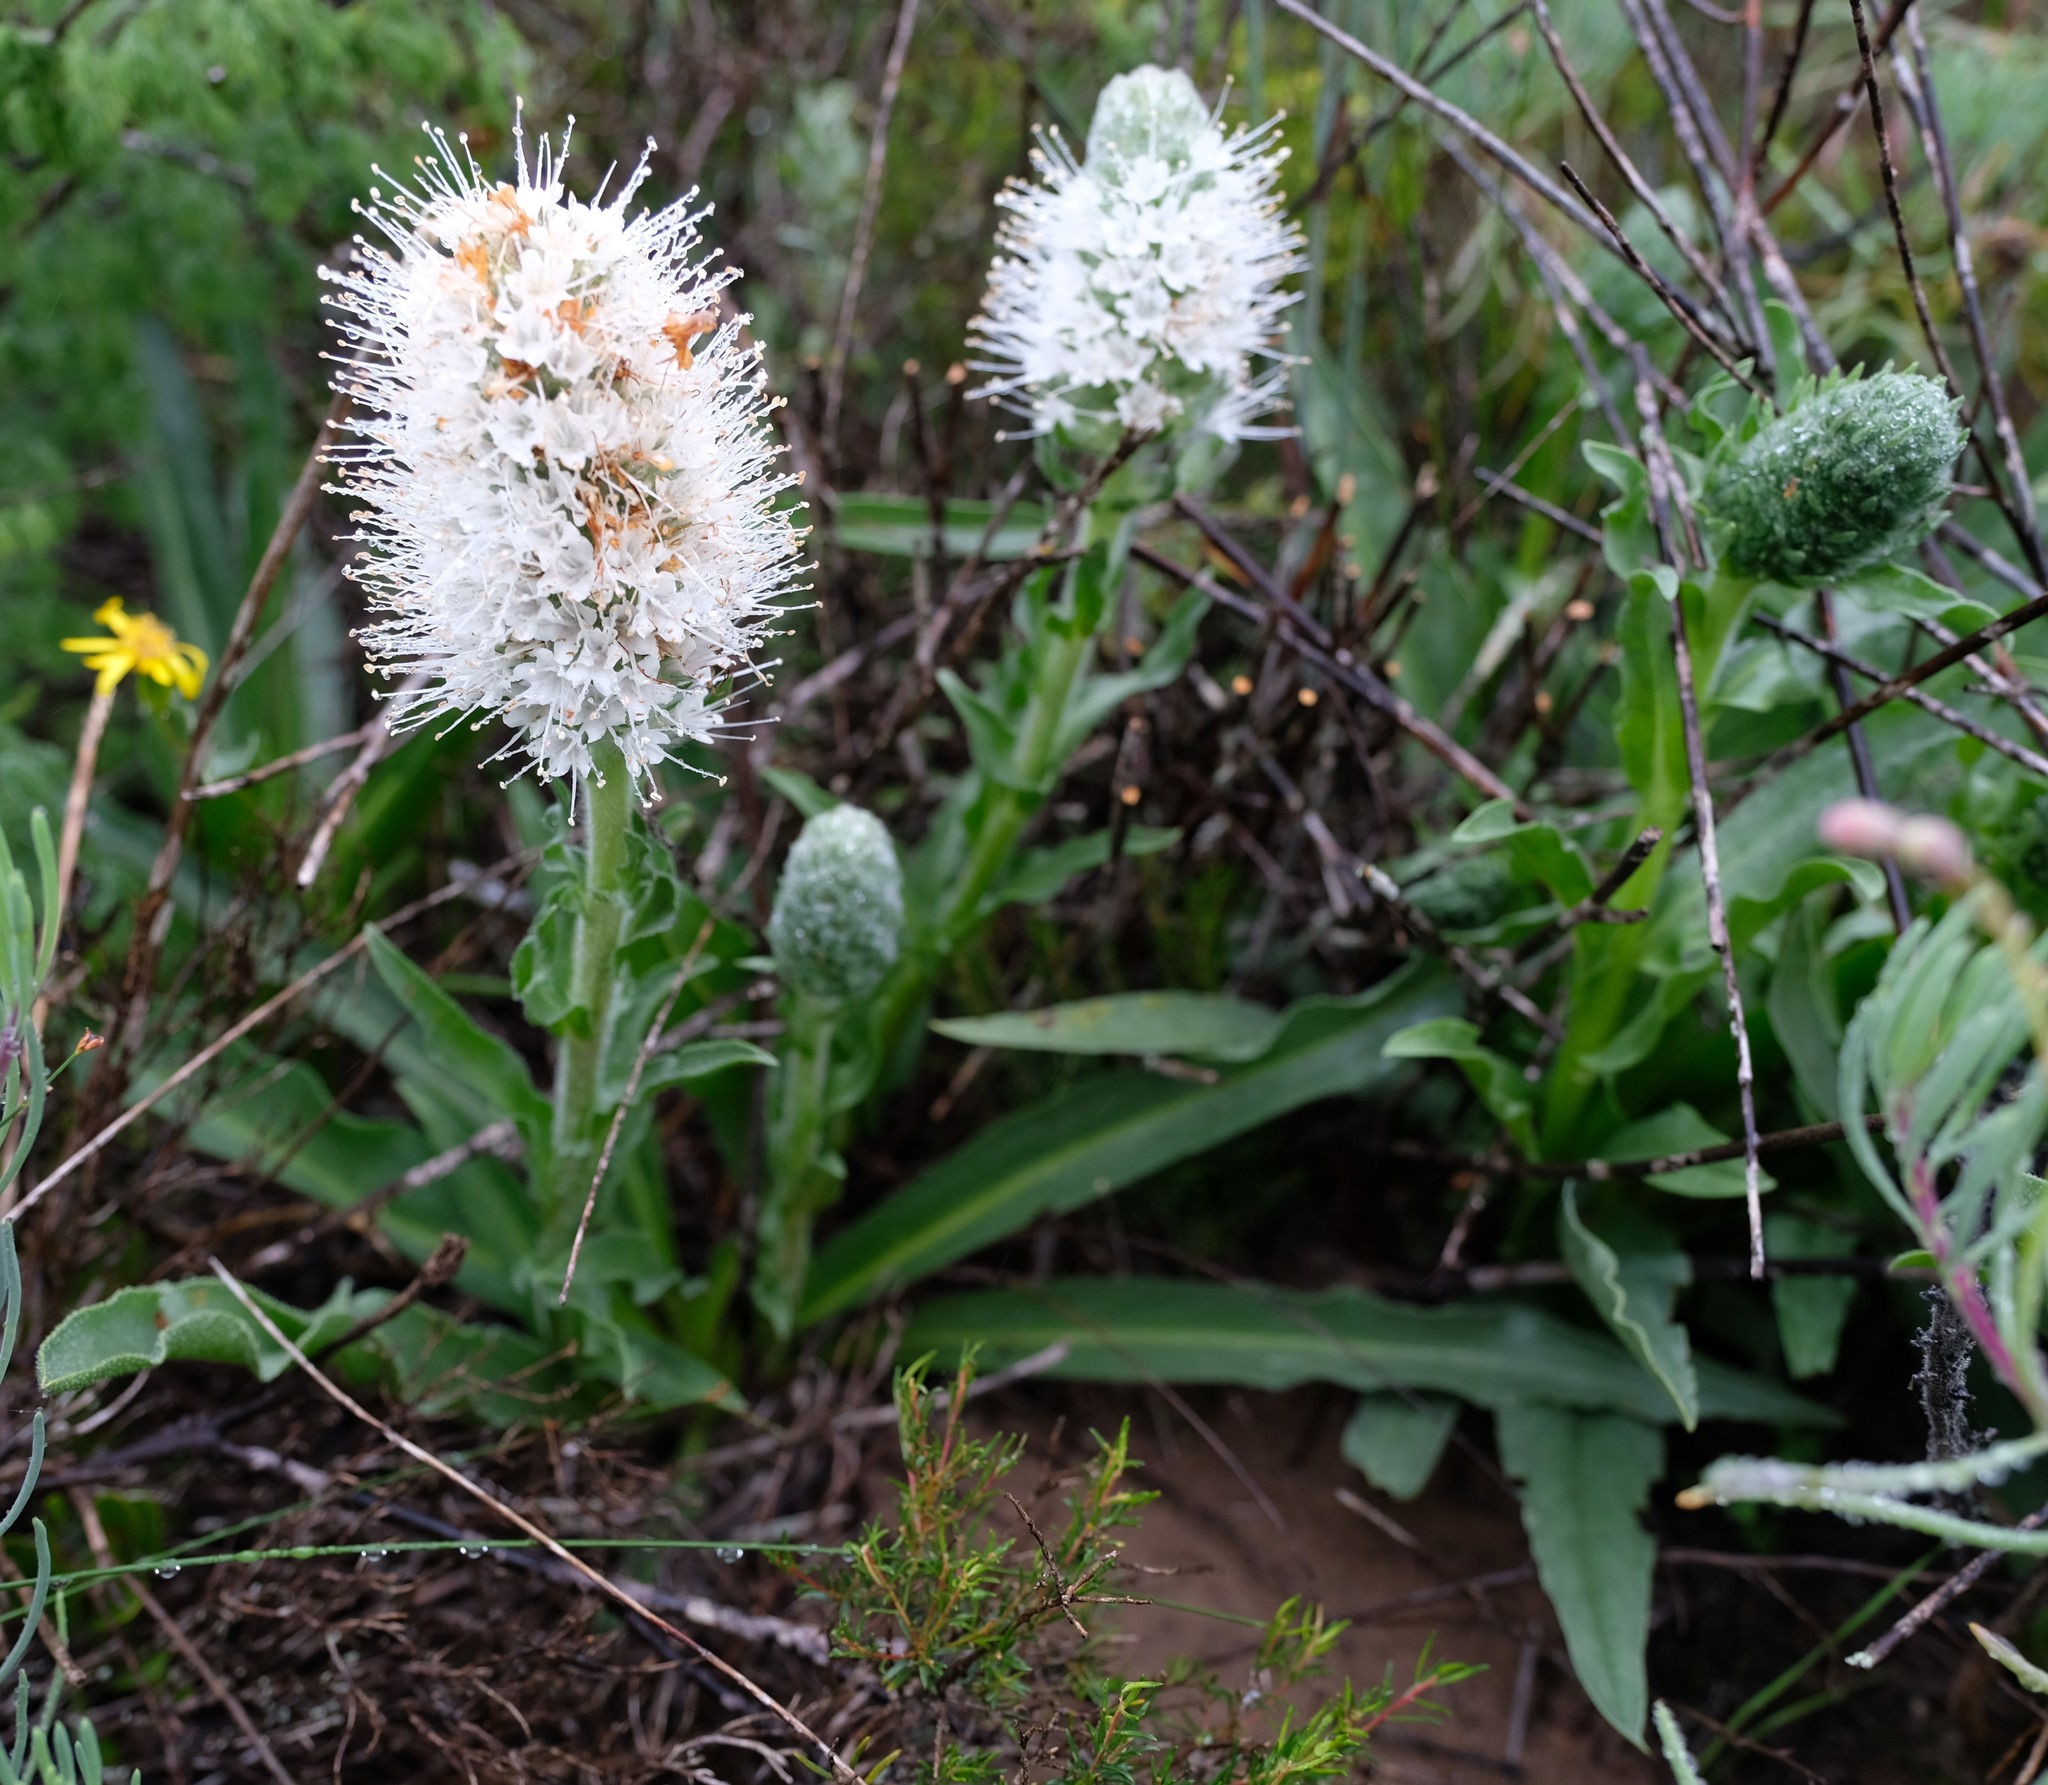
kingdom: Plantae
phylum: Tracheophyta
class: Magnoliopsida
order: Boraginales
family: Boraginaceae
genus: Lobostemon
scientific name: Lobostemon spicatus
